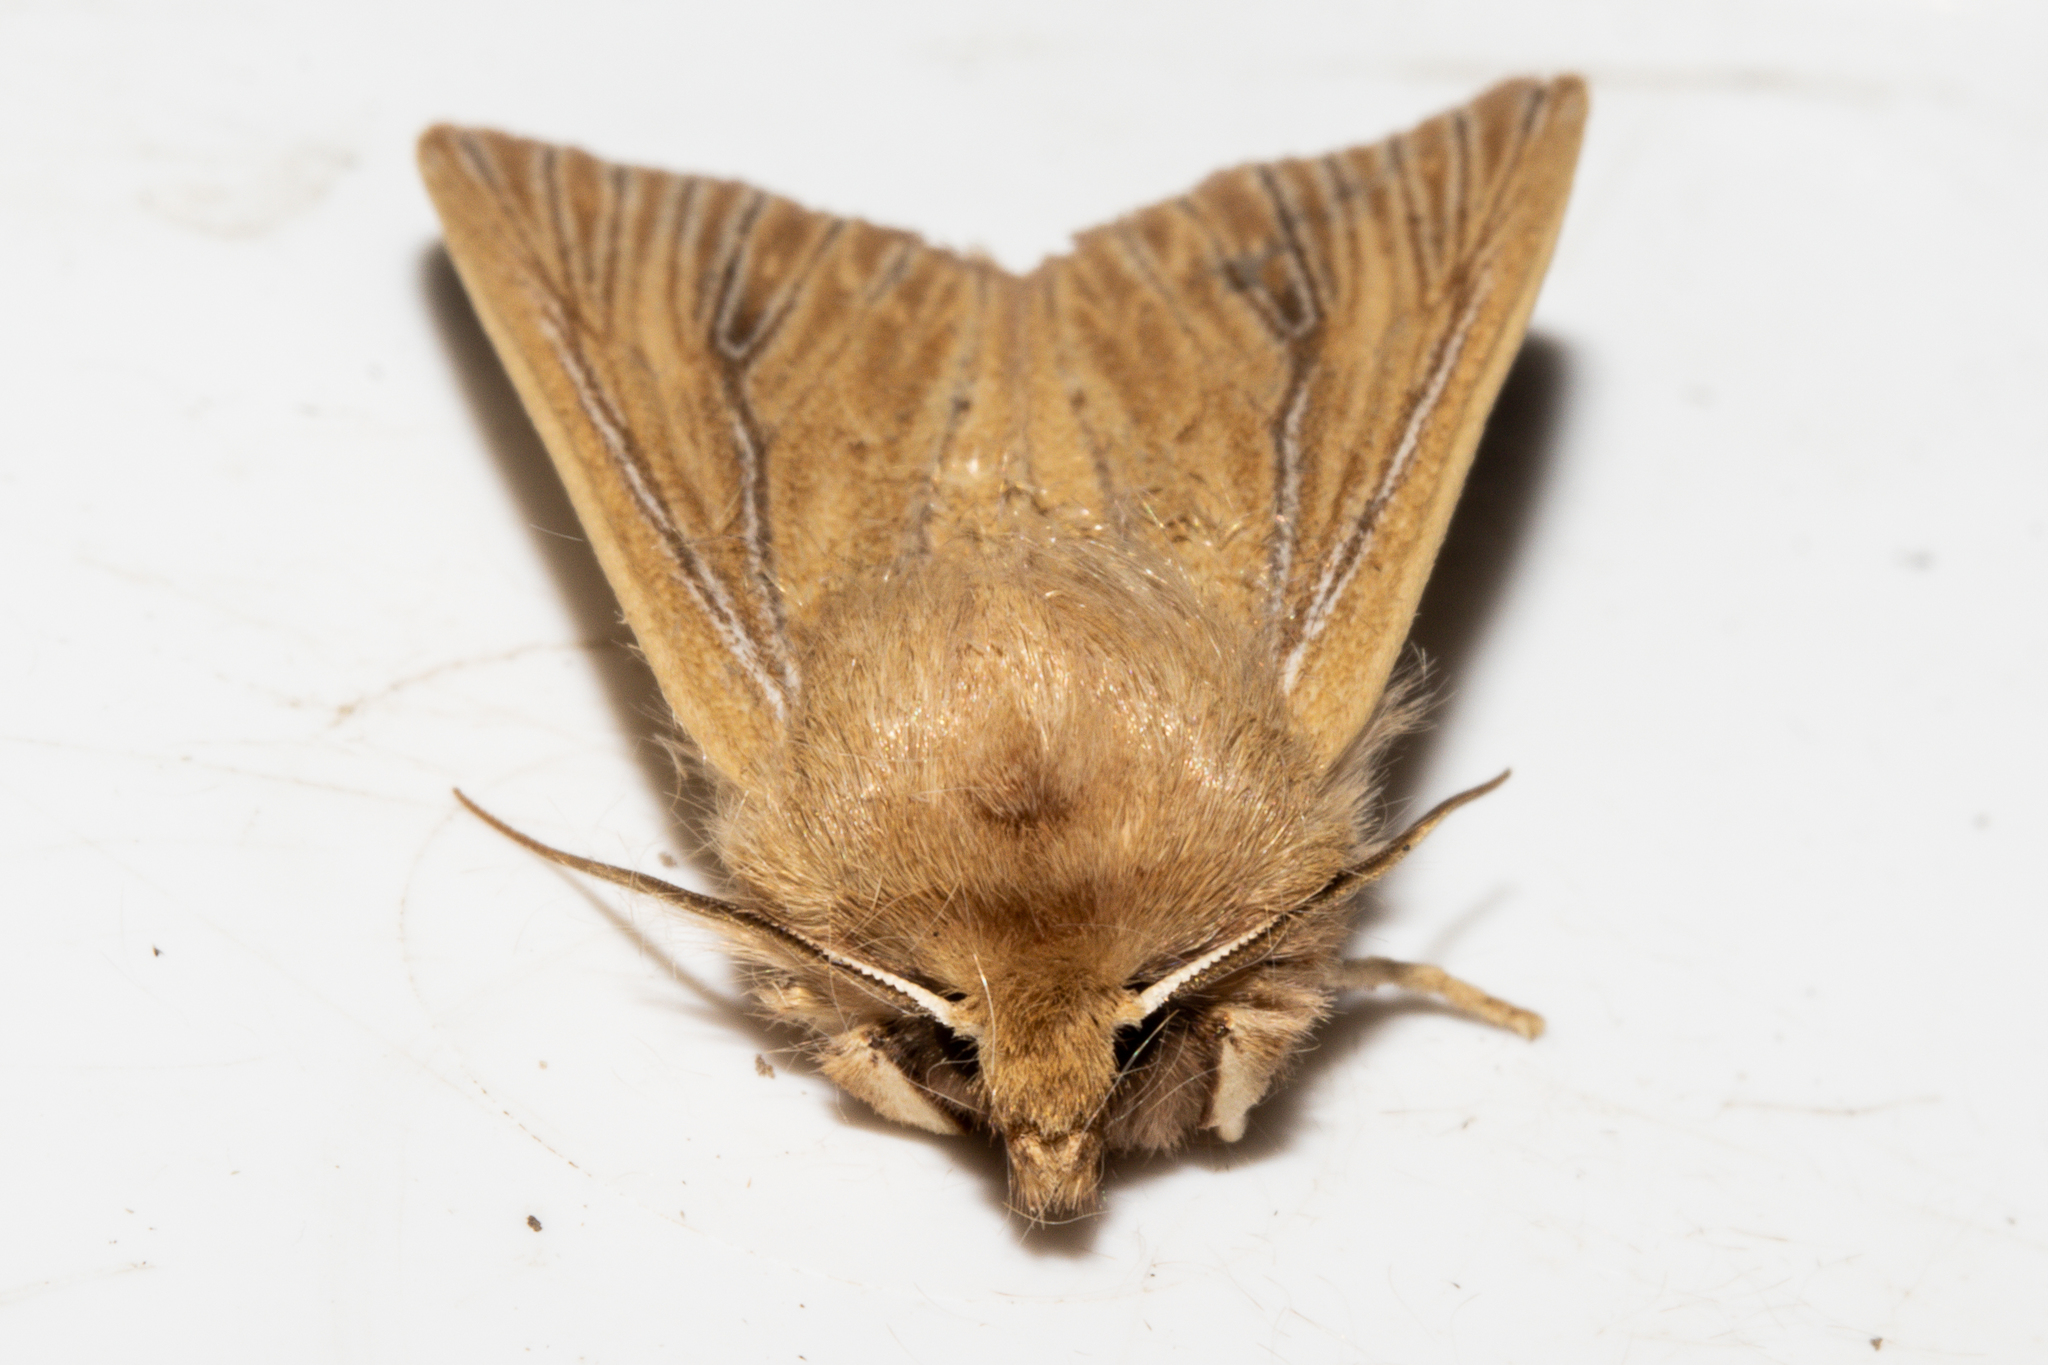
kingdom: Animalia
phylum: Arthropoda
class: Insecta
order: Lepidoptera
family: Noctuidae
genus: Ichneutica
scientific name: Ichneutica arotis
